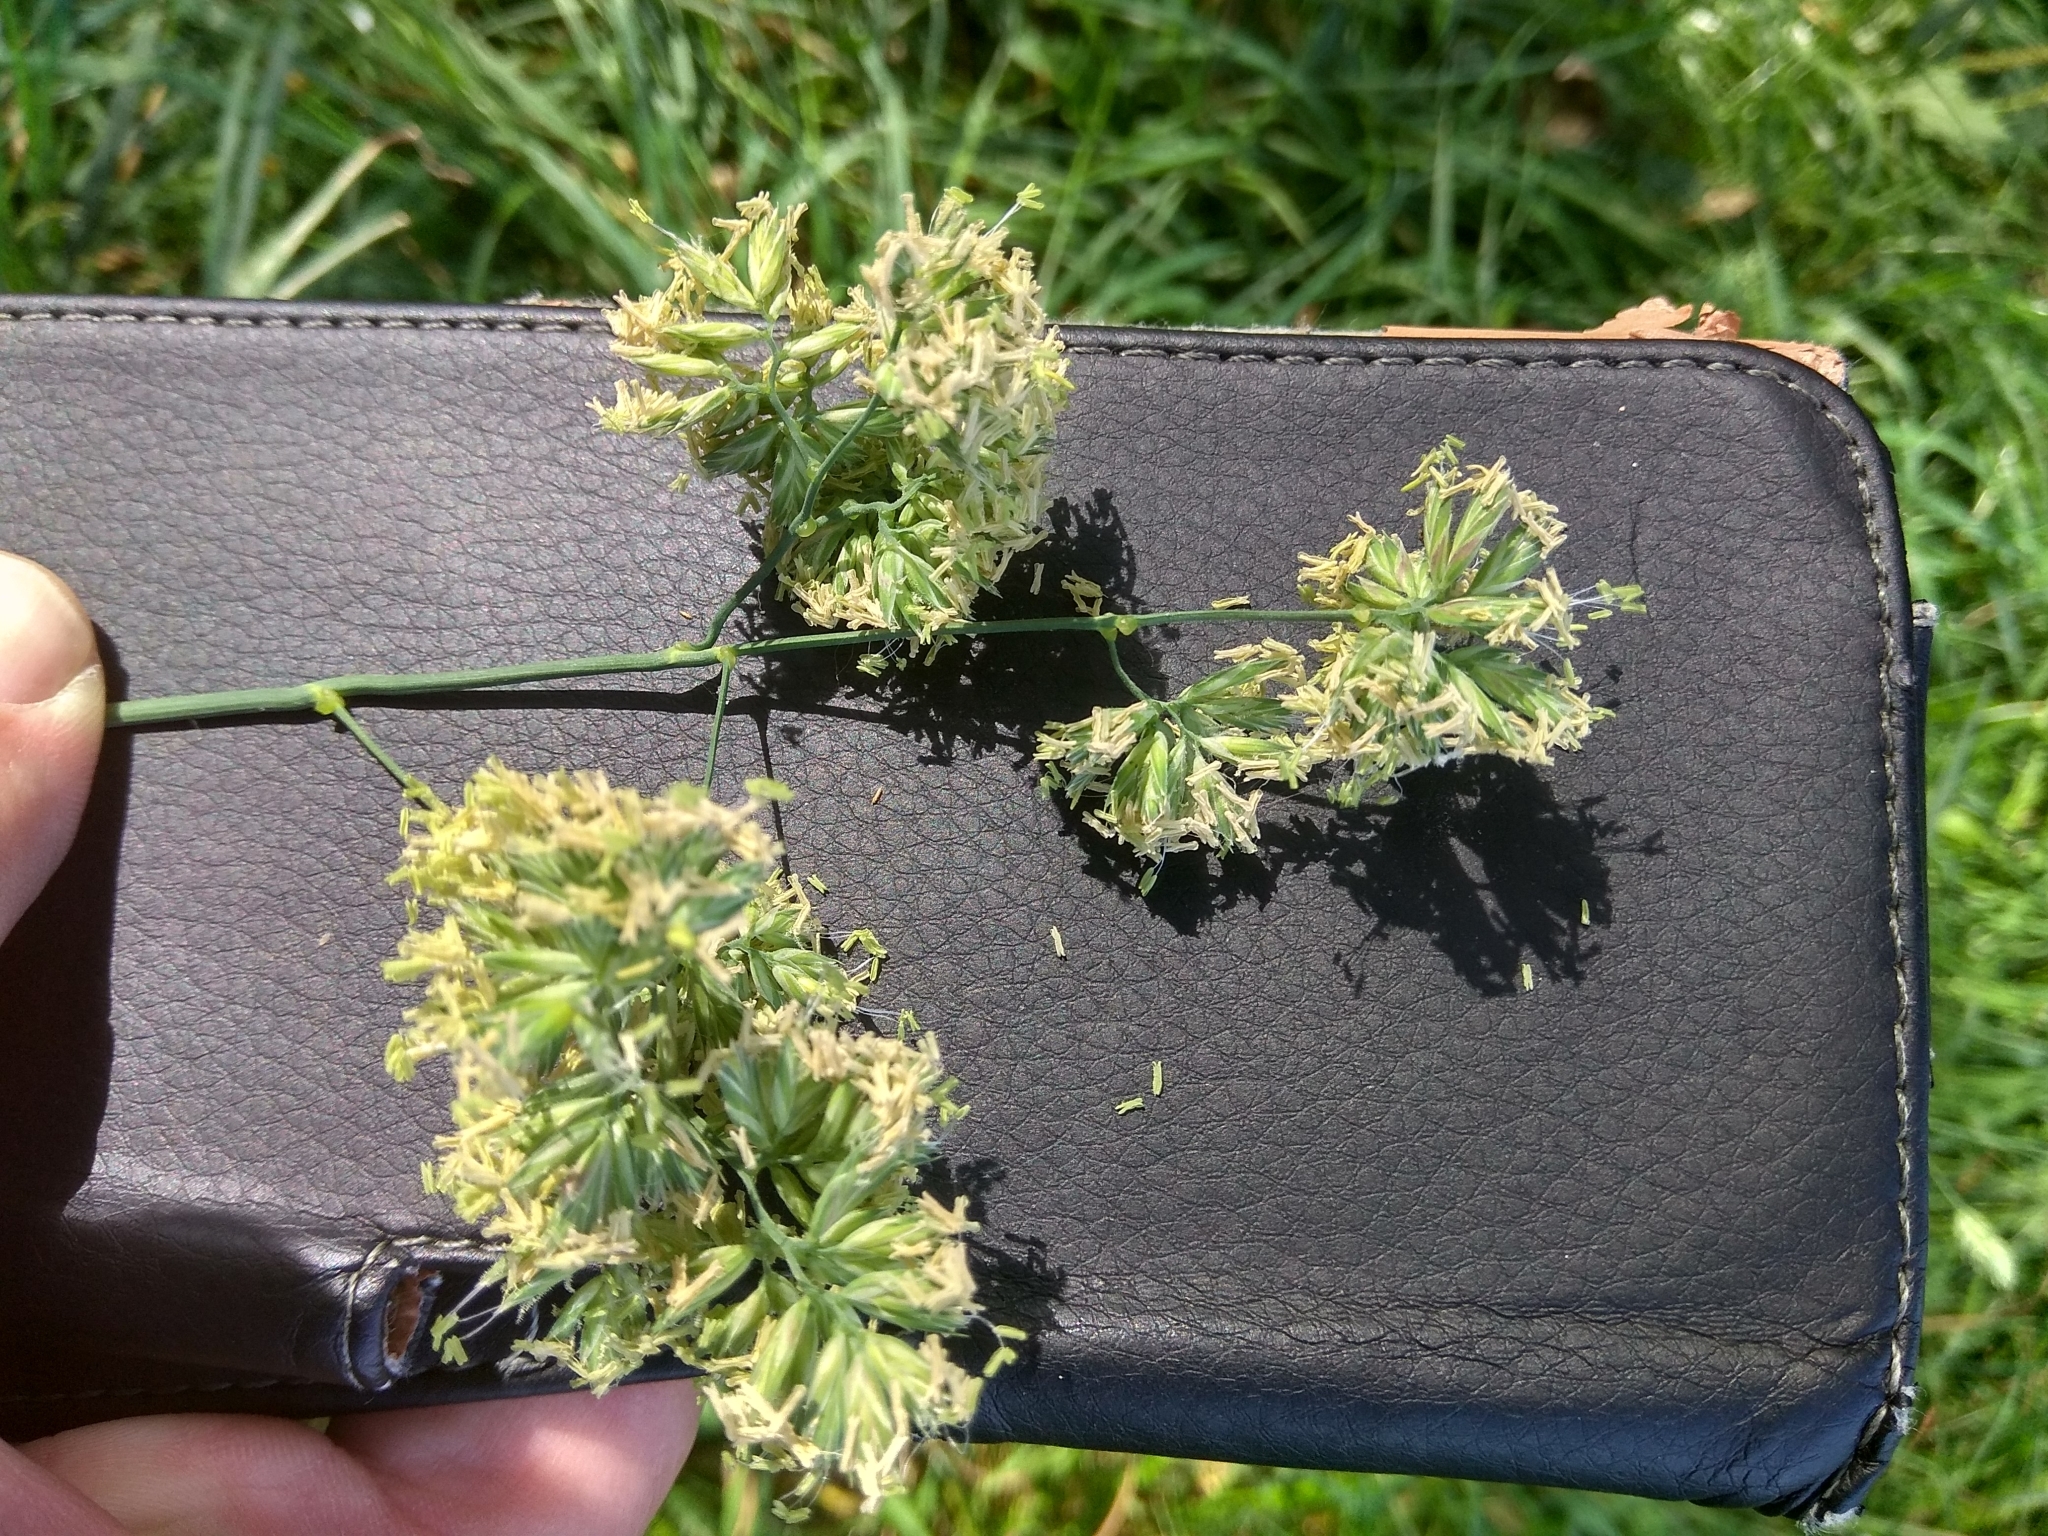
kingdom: Plantae
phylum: Tracheophyta
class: Liliopsida
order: Poales
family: Poaceae
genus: Dactylis
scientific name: Dactylis glomerata
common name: Orchardgrass
